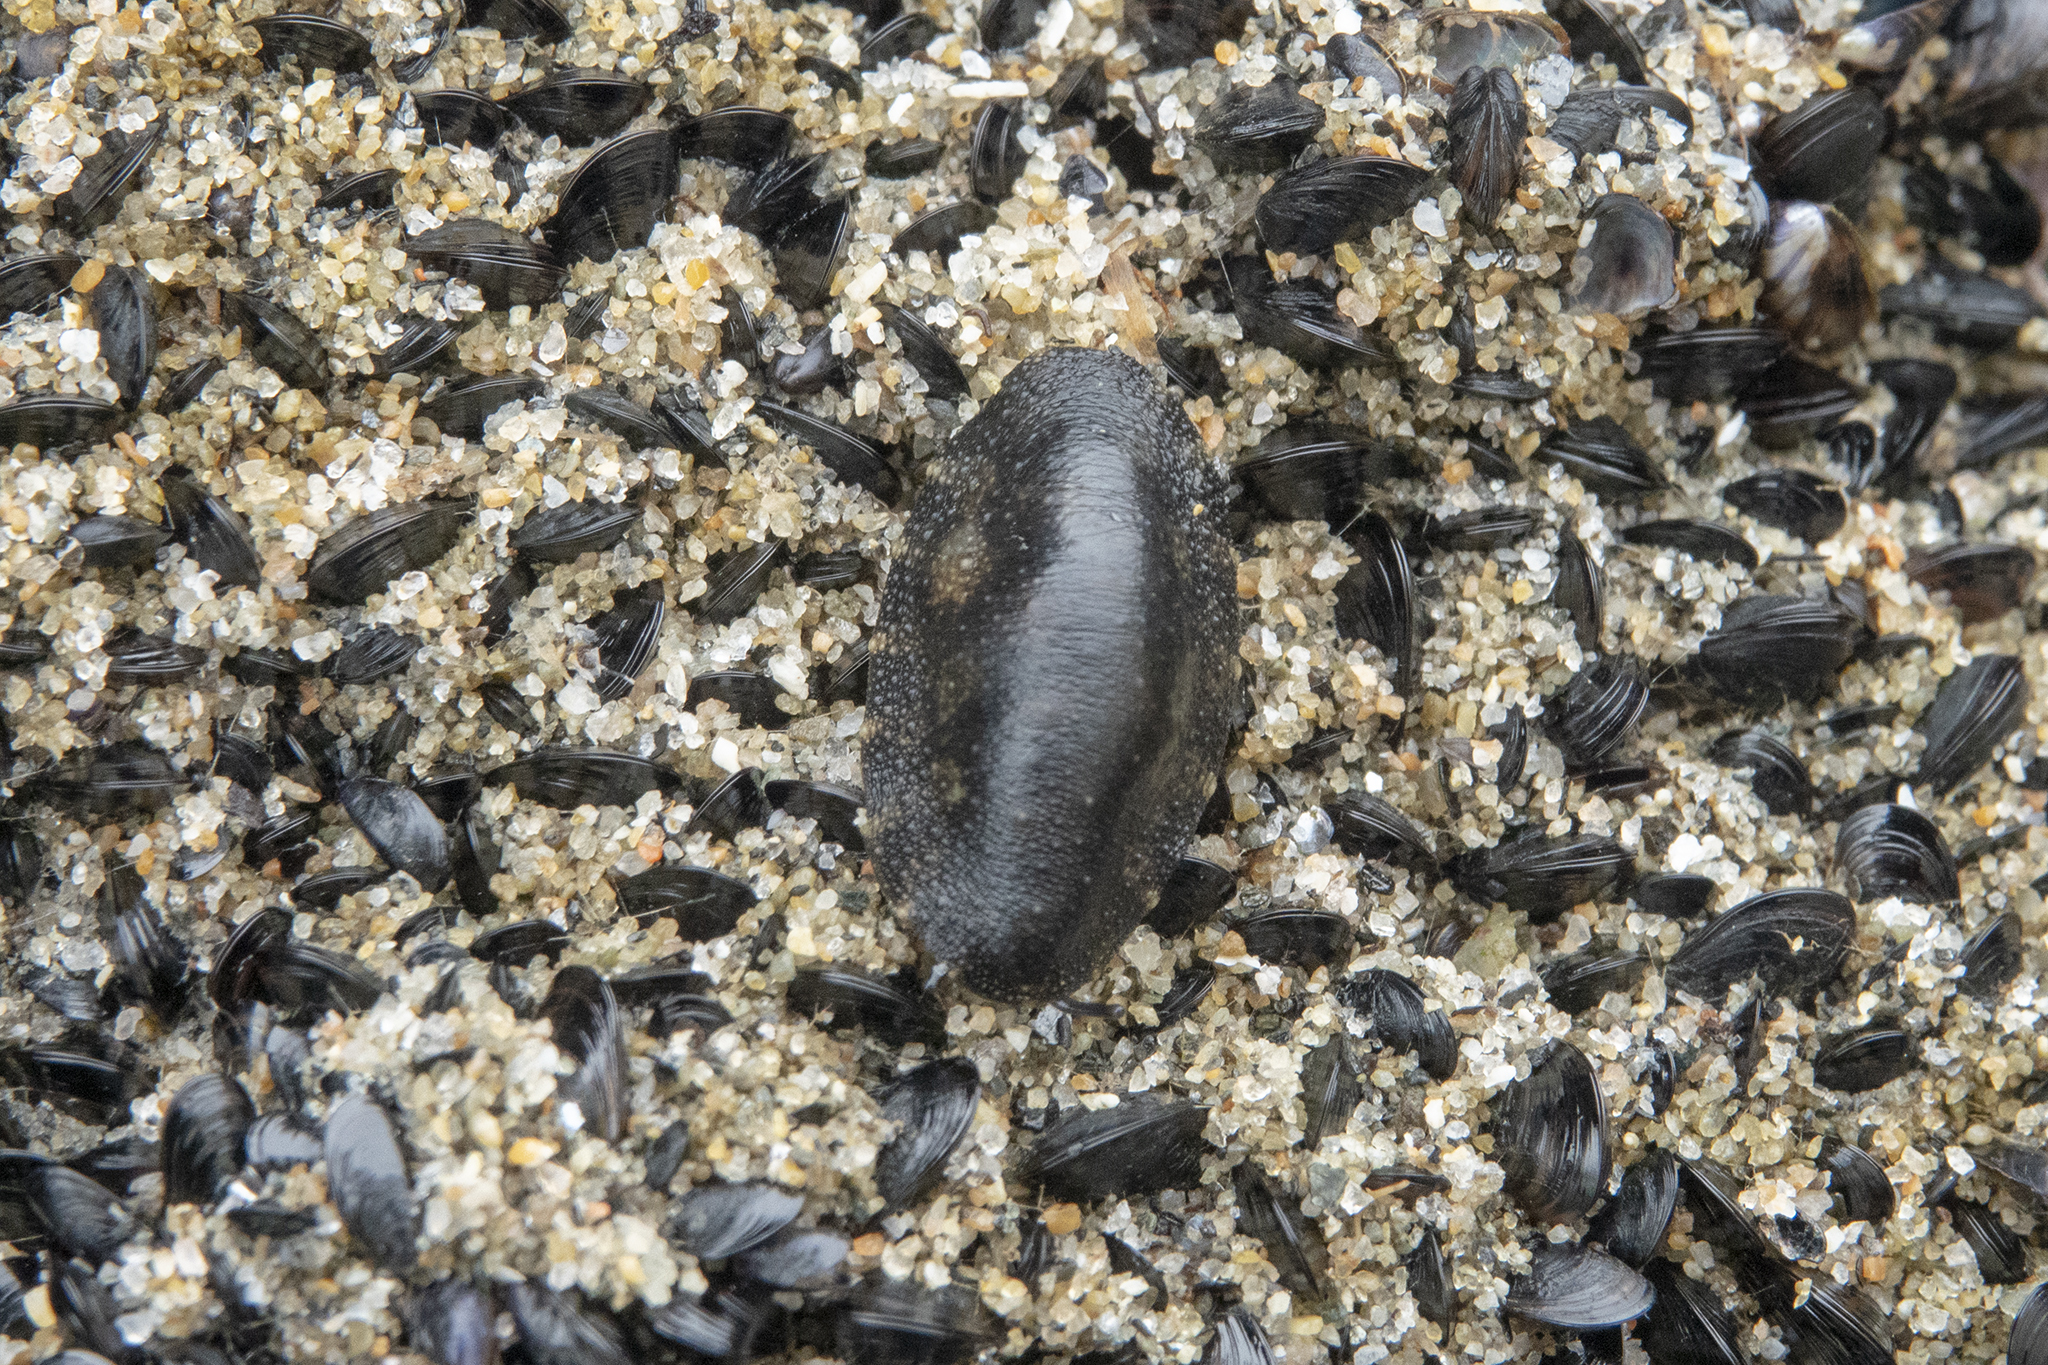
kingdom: Animalia
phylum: Mollusca
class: Gastropoda
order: Systellommatophora
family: Onchidiidae
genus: Onchidella
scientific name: Onchidella nigricans
